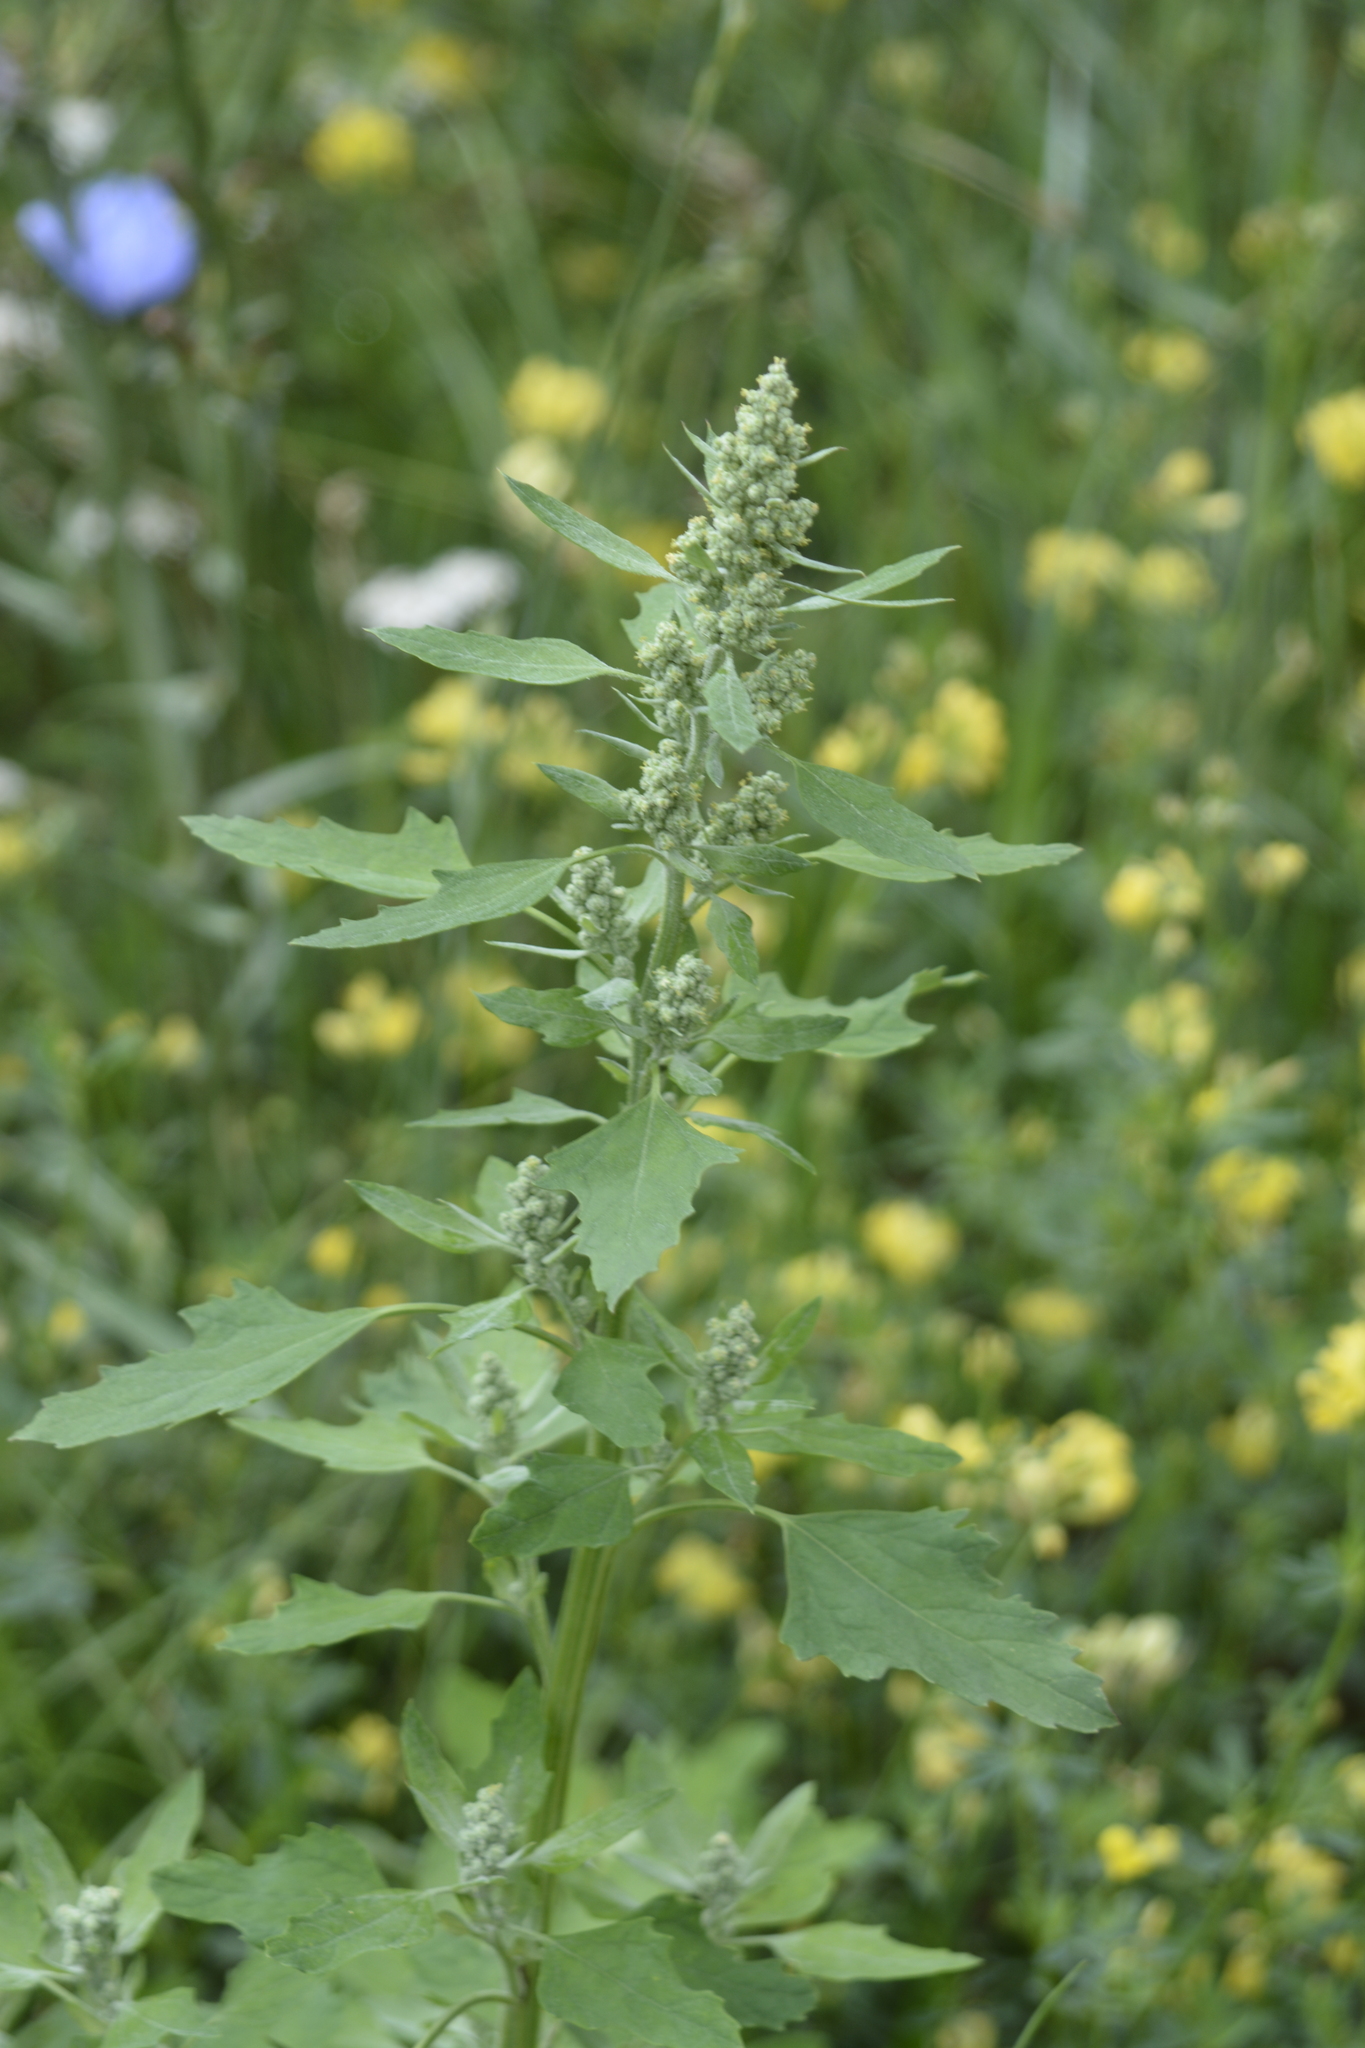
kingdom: Plantae
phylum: Tracheophyta
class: Magnoliopsida
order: Caryophyllales
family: Amaranthaceae
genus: Chenopodium
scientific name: Chenopodium album
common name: Fat-hen
